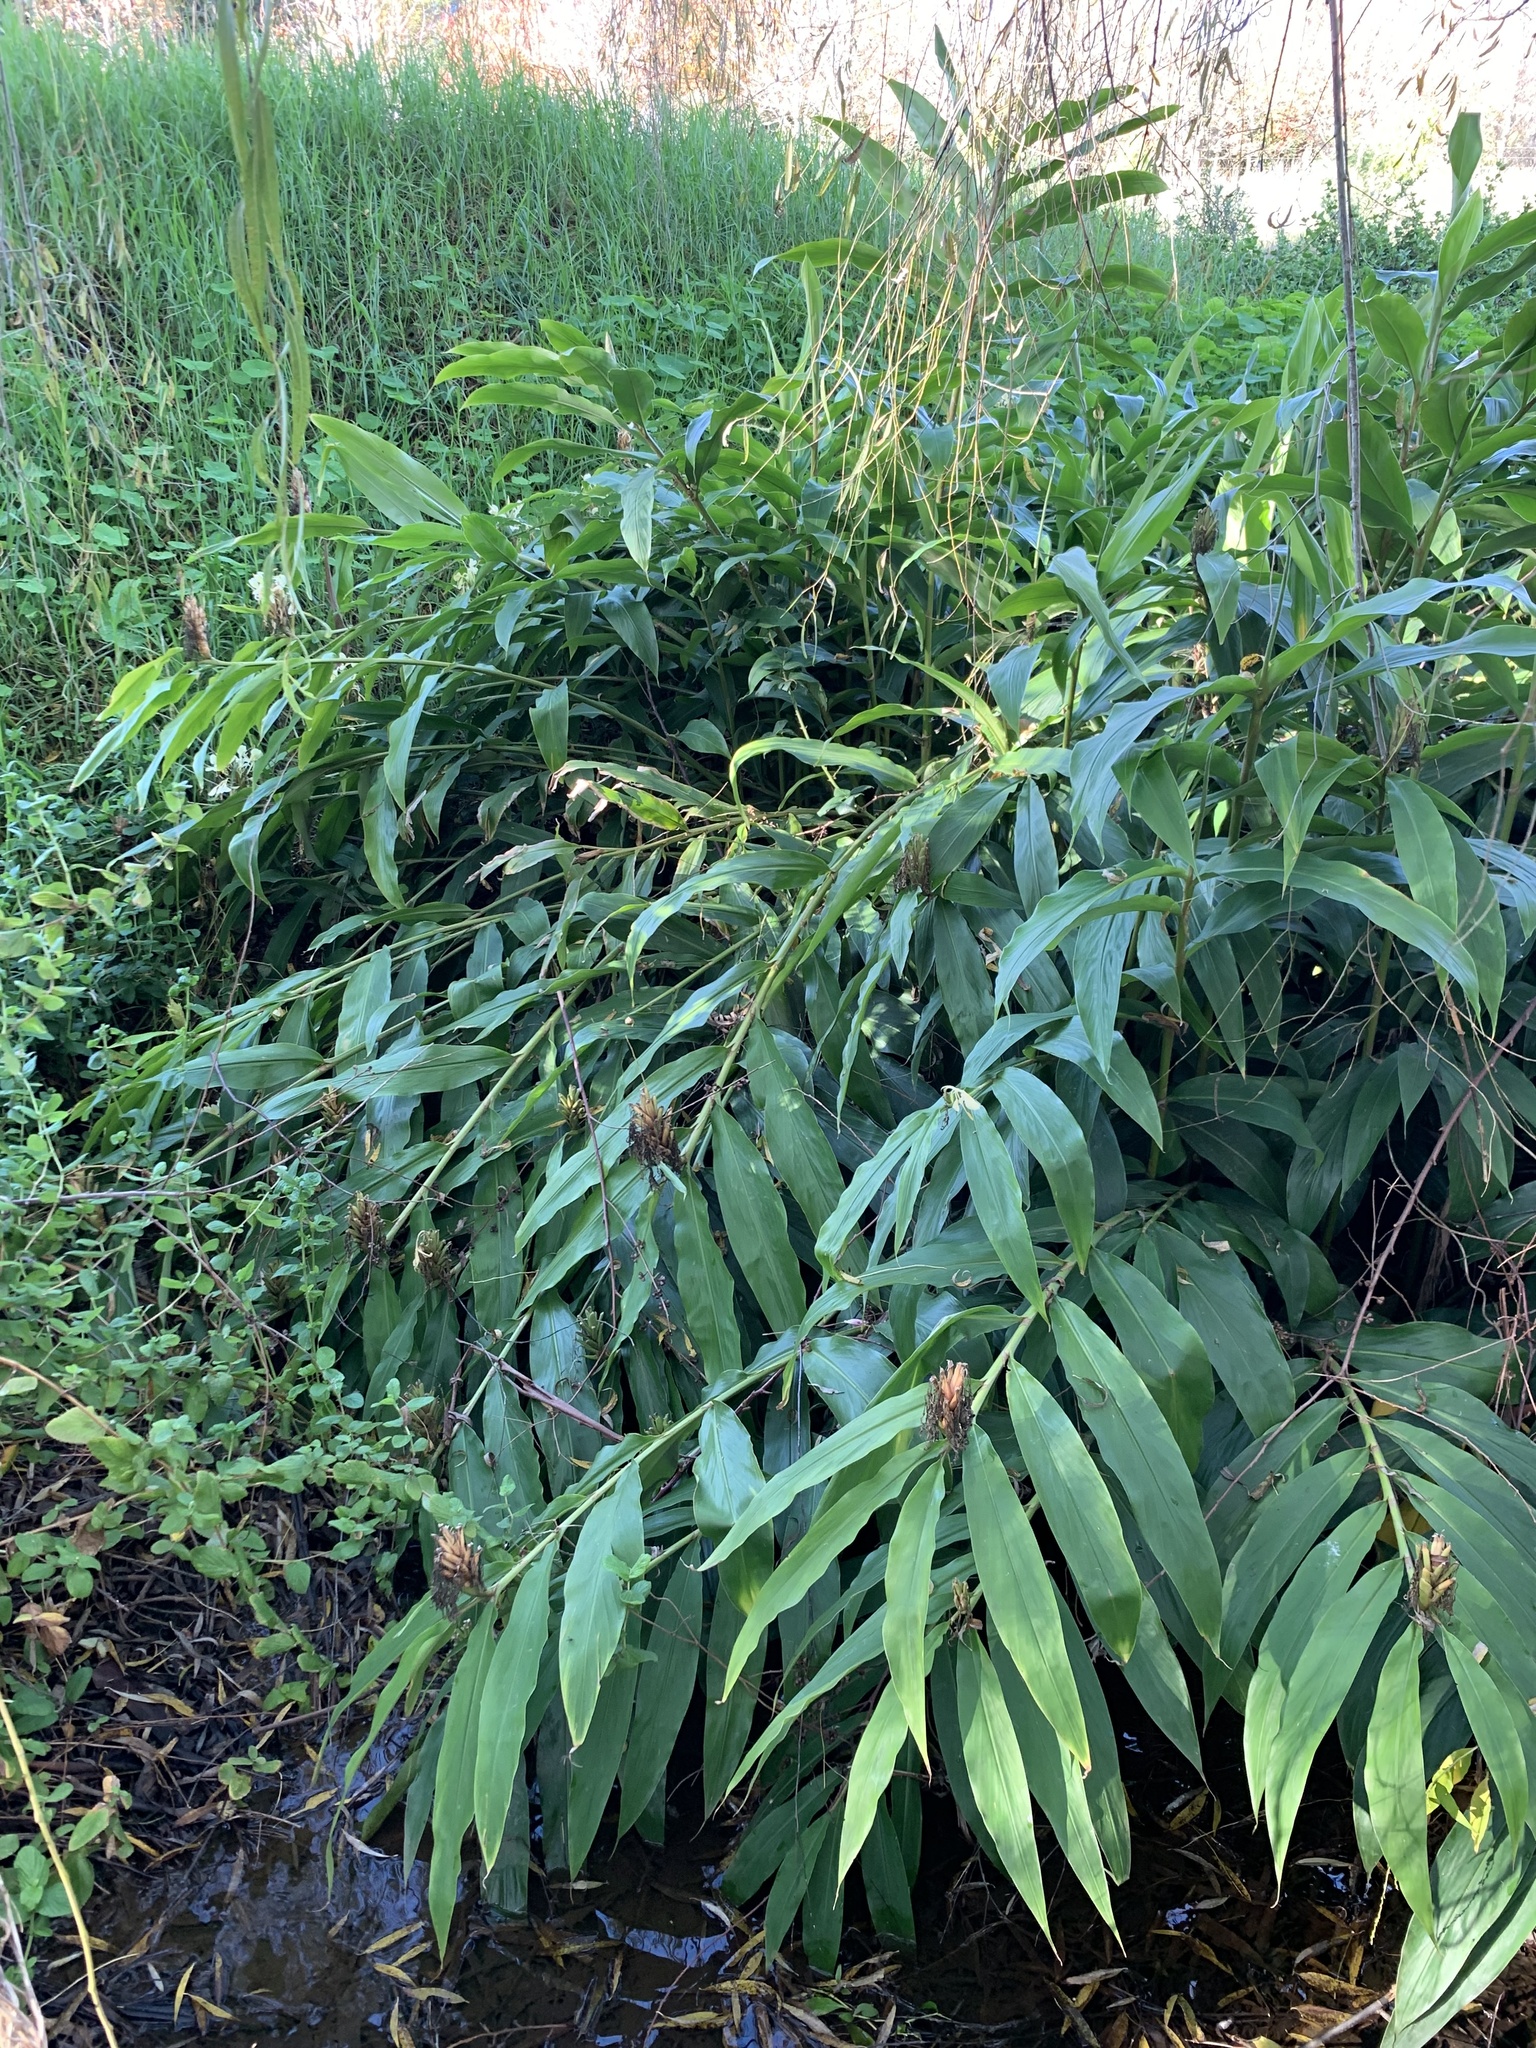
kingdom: Plantae
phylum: Tracheophyta
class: Liliopsida
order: Zingiberales
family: Zingiberaceae
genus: Hedychium
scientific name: Hedychium flavescens
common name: Yellow ginger
